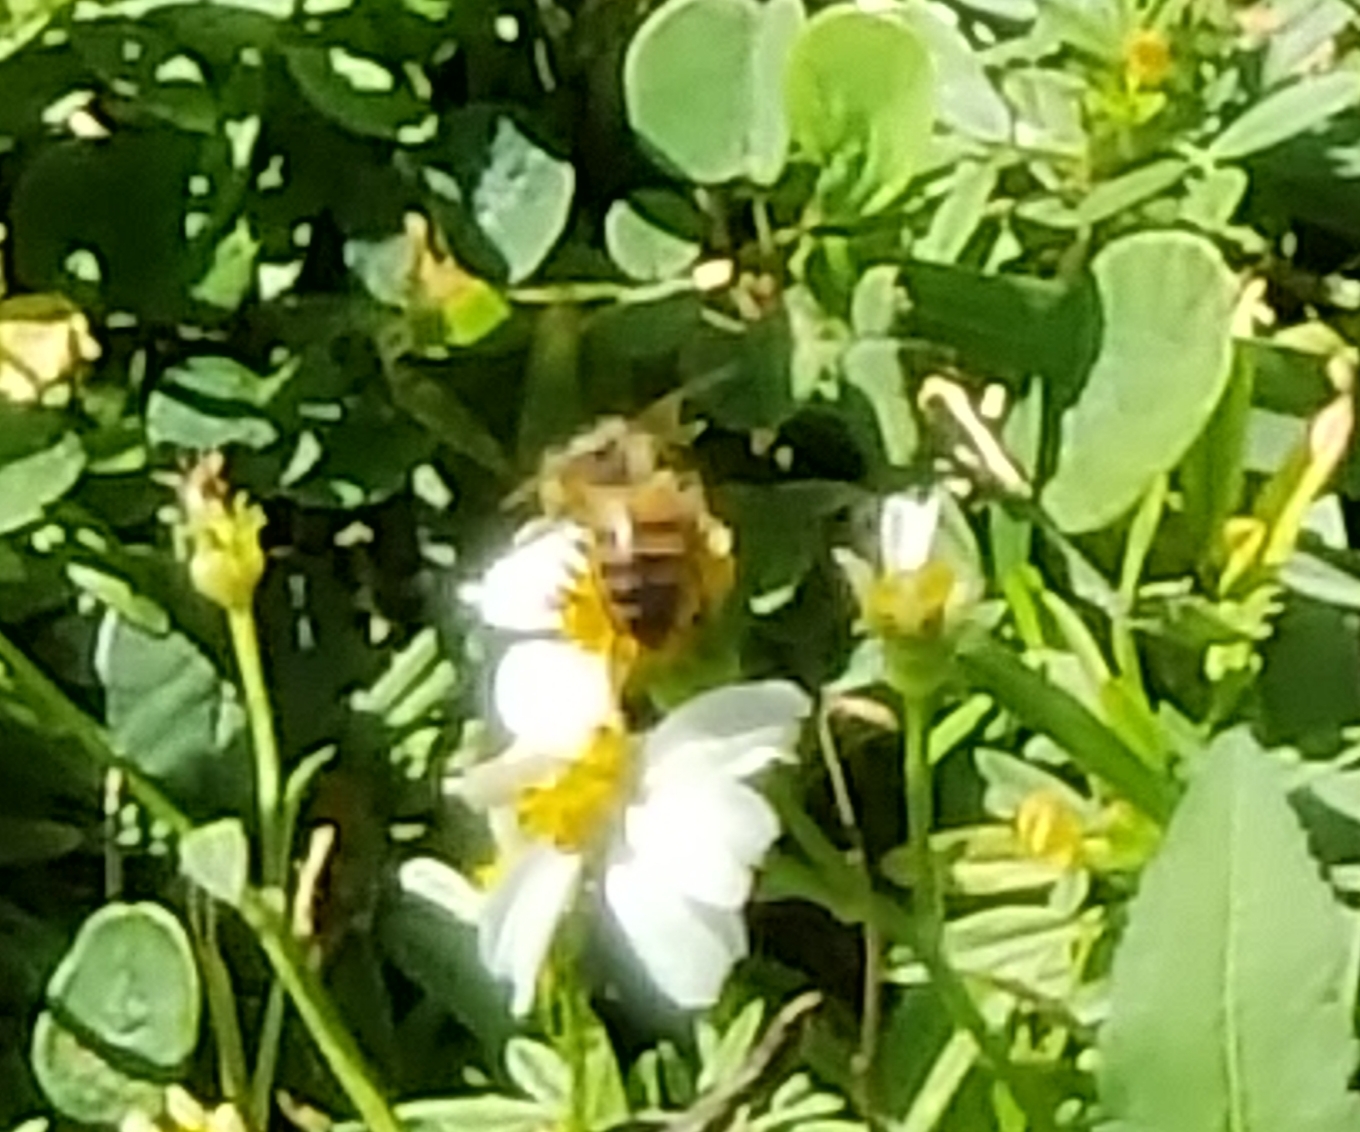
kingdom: Animalia
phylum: Arthropoda
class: Insecta
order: Hymenoptera
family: Apidae
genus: Apis
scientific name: Apis mellifera
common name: Honey bee
